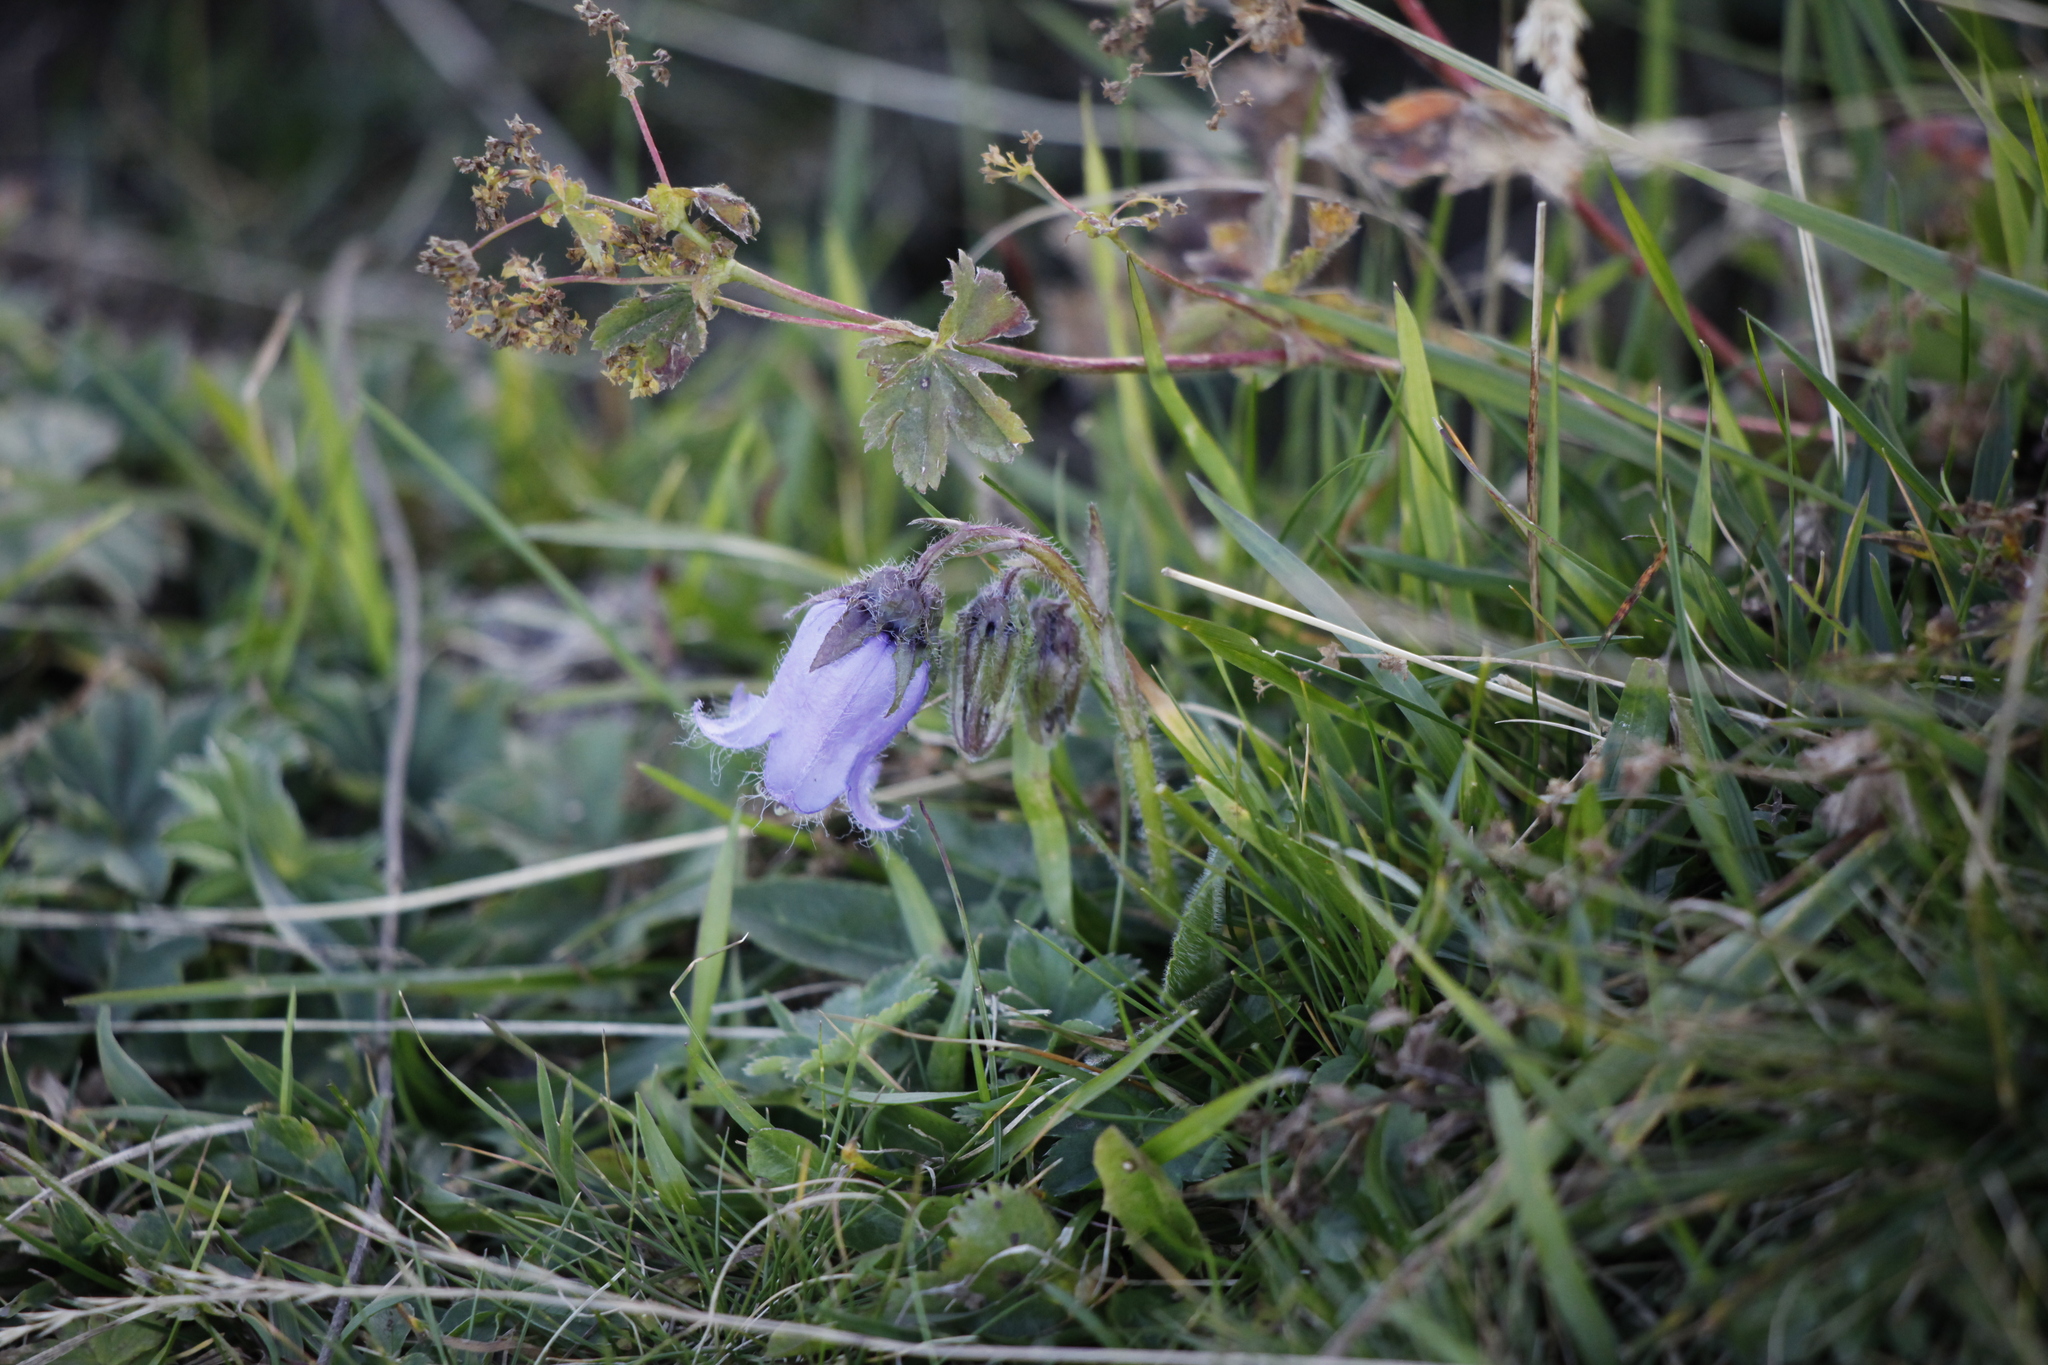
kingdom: Plantae
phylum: Tracheophyta
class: Magnoliopsida
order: Asterales
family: Campanulaceae
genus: Campanula
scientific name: Campanula barbata
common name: Bearded bellflower
